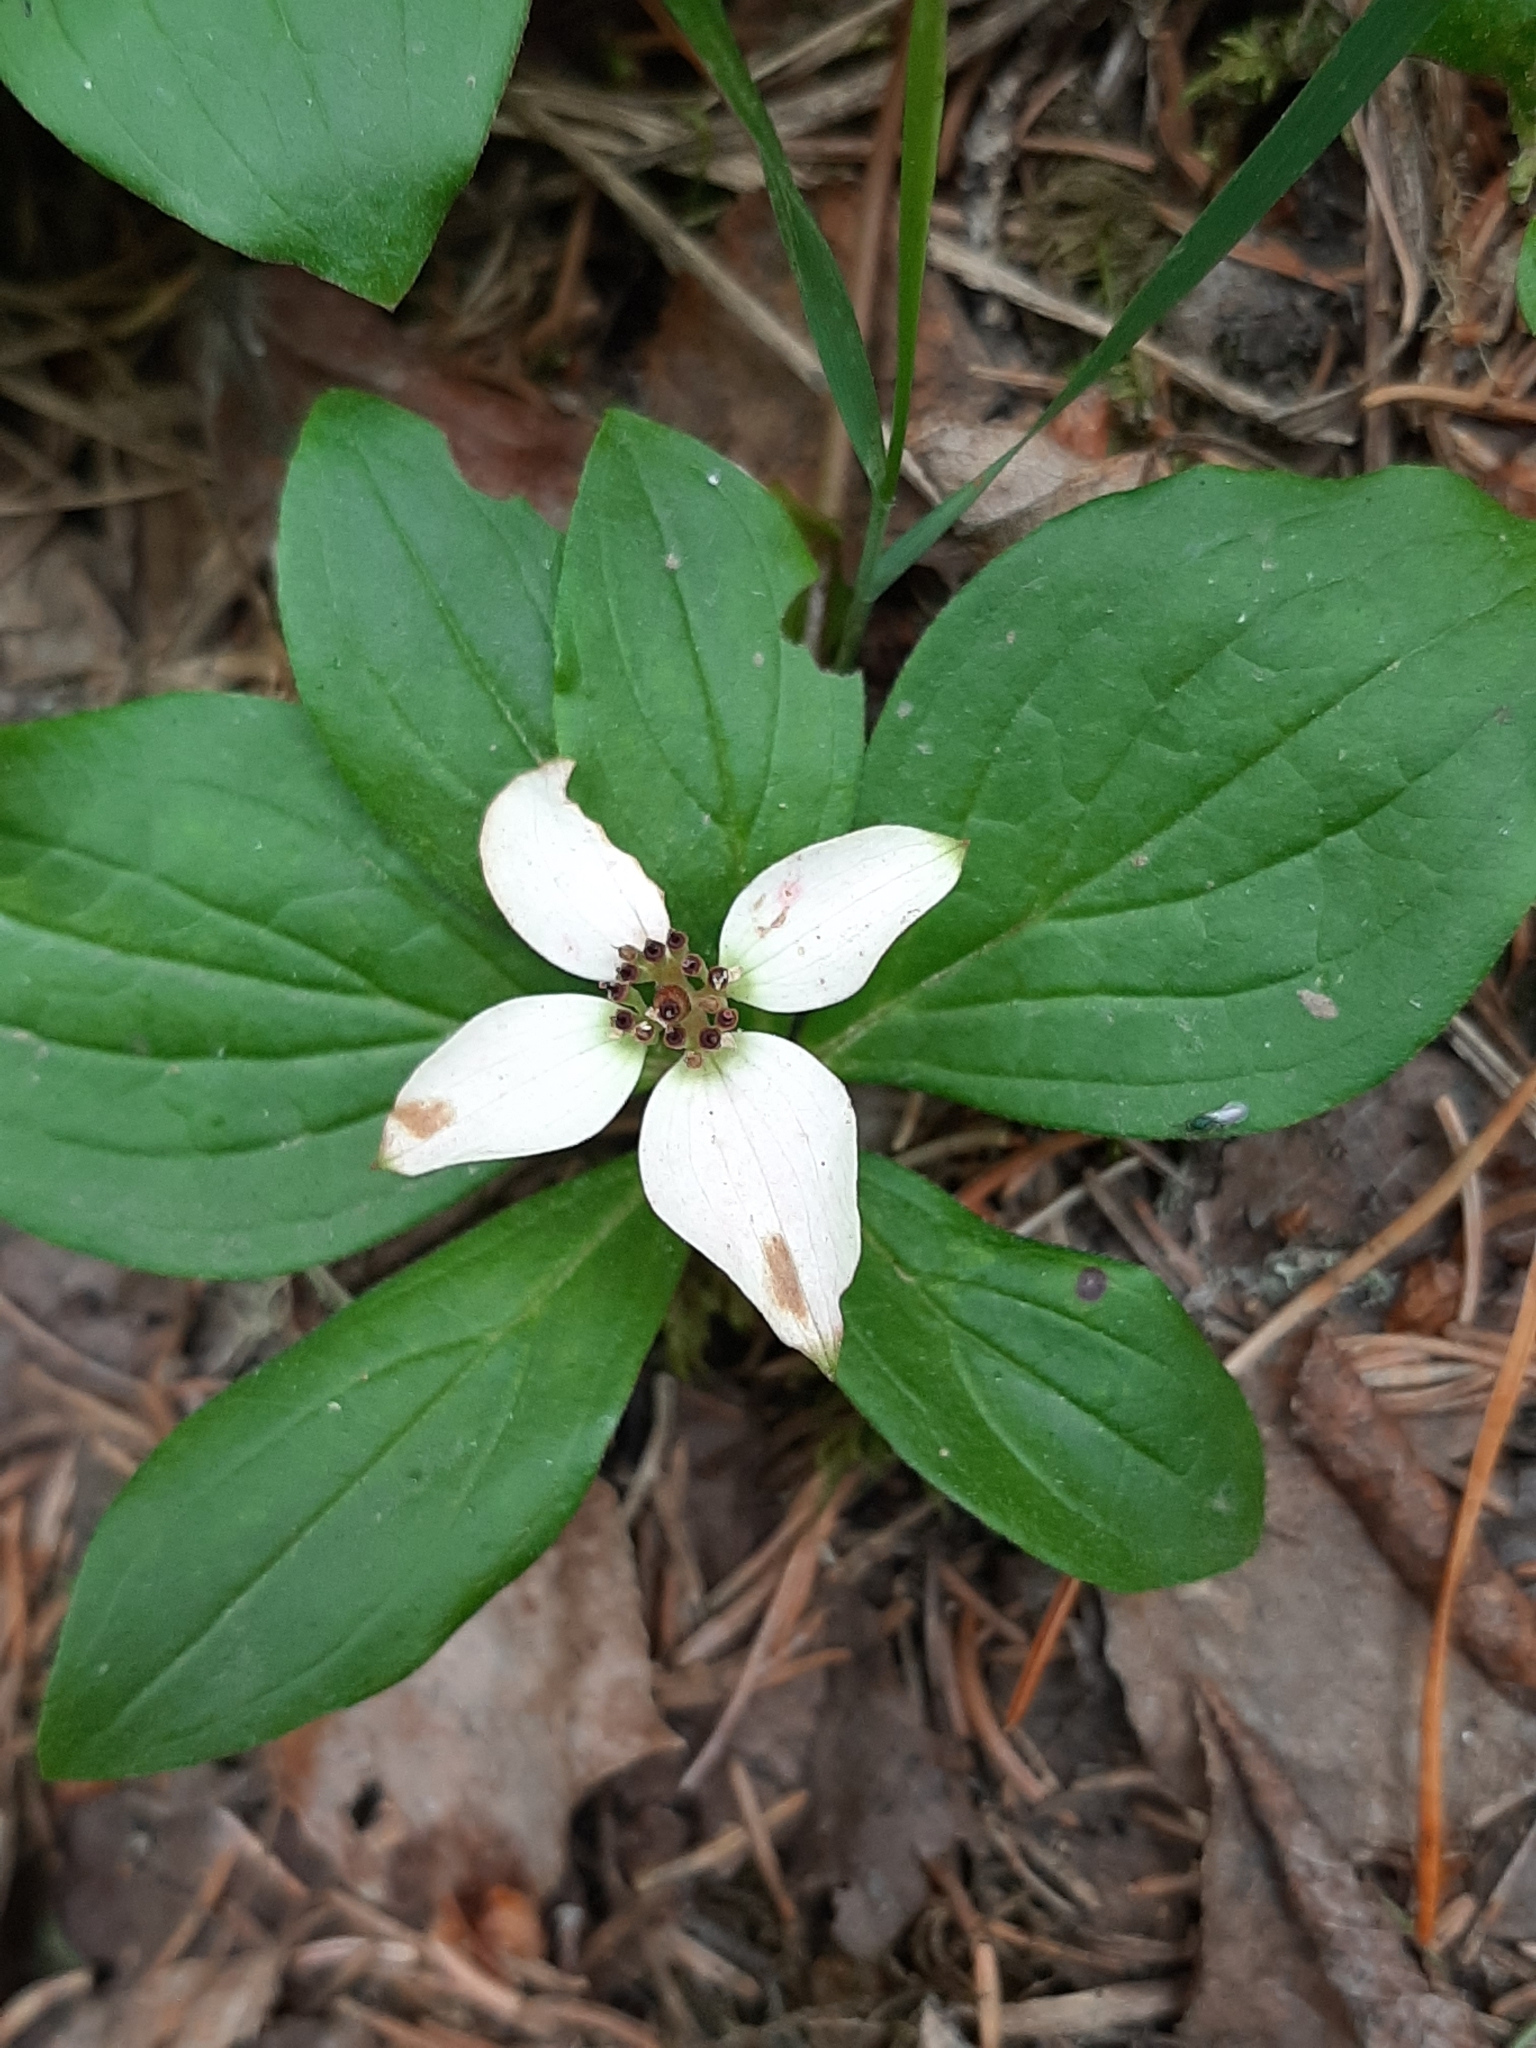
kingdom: Plantae
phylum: Tracheophyta
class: Magnoliopsida
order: Cornales
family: Cornaceae
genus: Cornus
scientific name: Cornus canadensis
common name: Creeping dogwood
